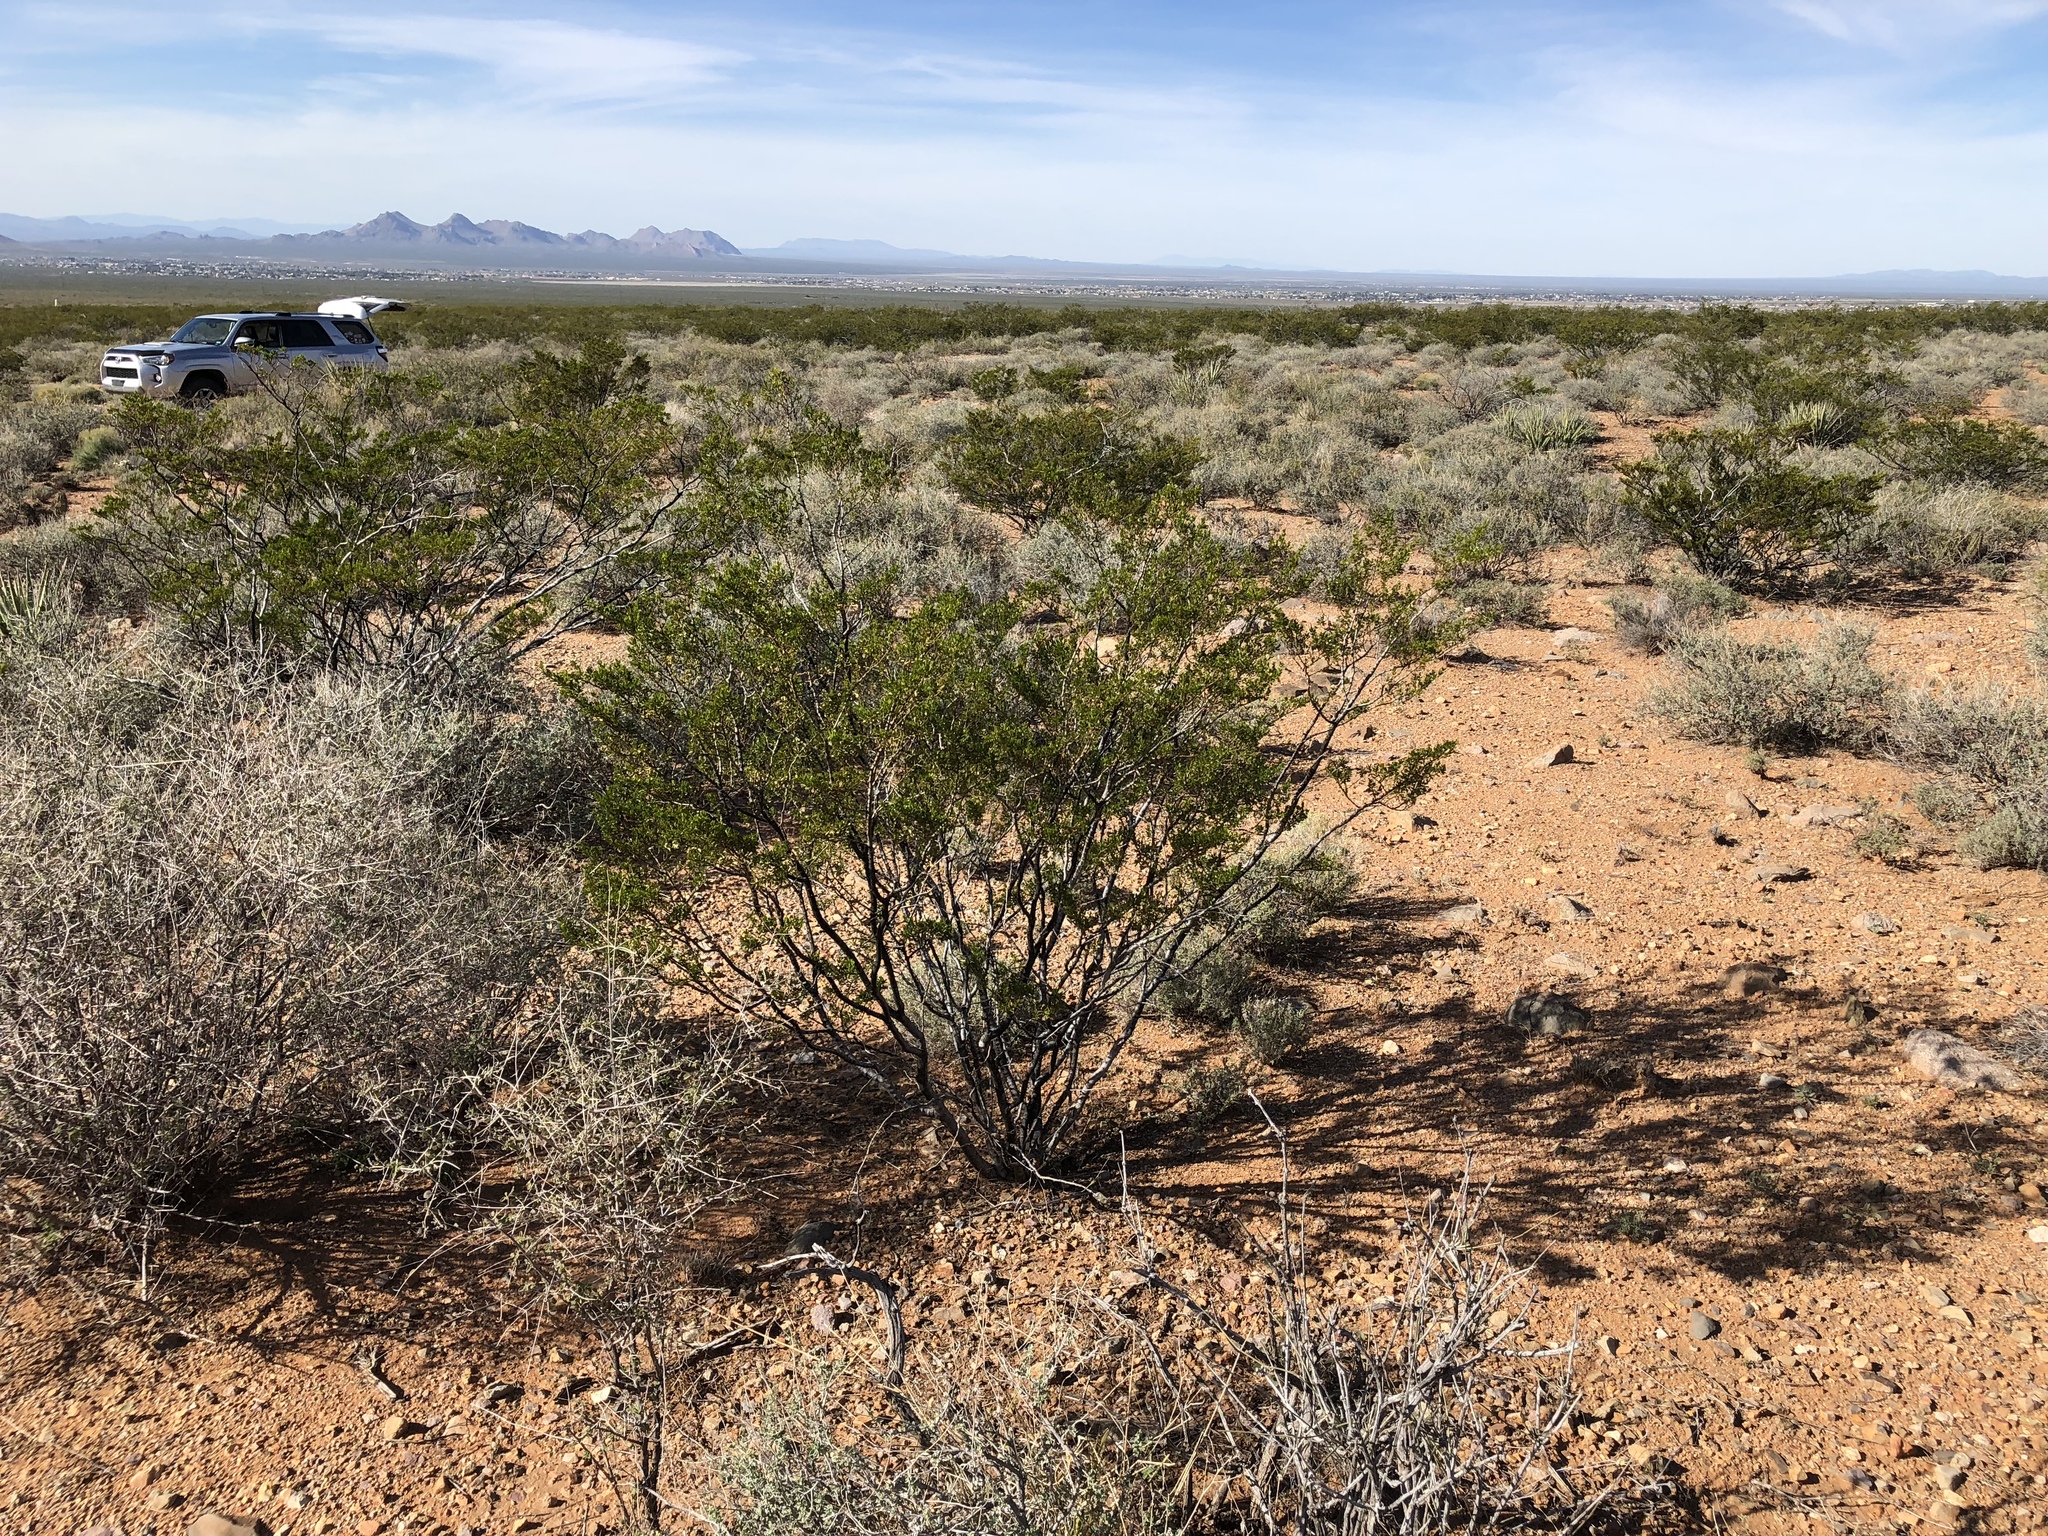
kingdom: Plantae
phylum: Tracheophyta
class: Magnoliopsida
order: Zygophyllales
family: Zygophyllaceae
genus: Larrea
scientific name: Larrea tridentata
